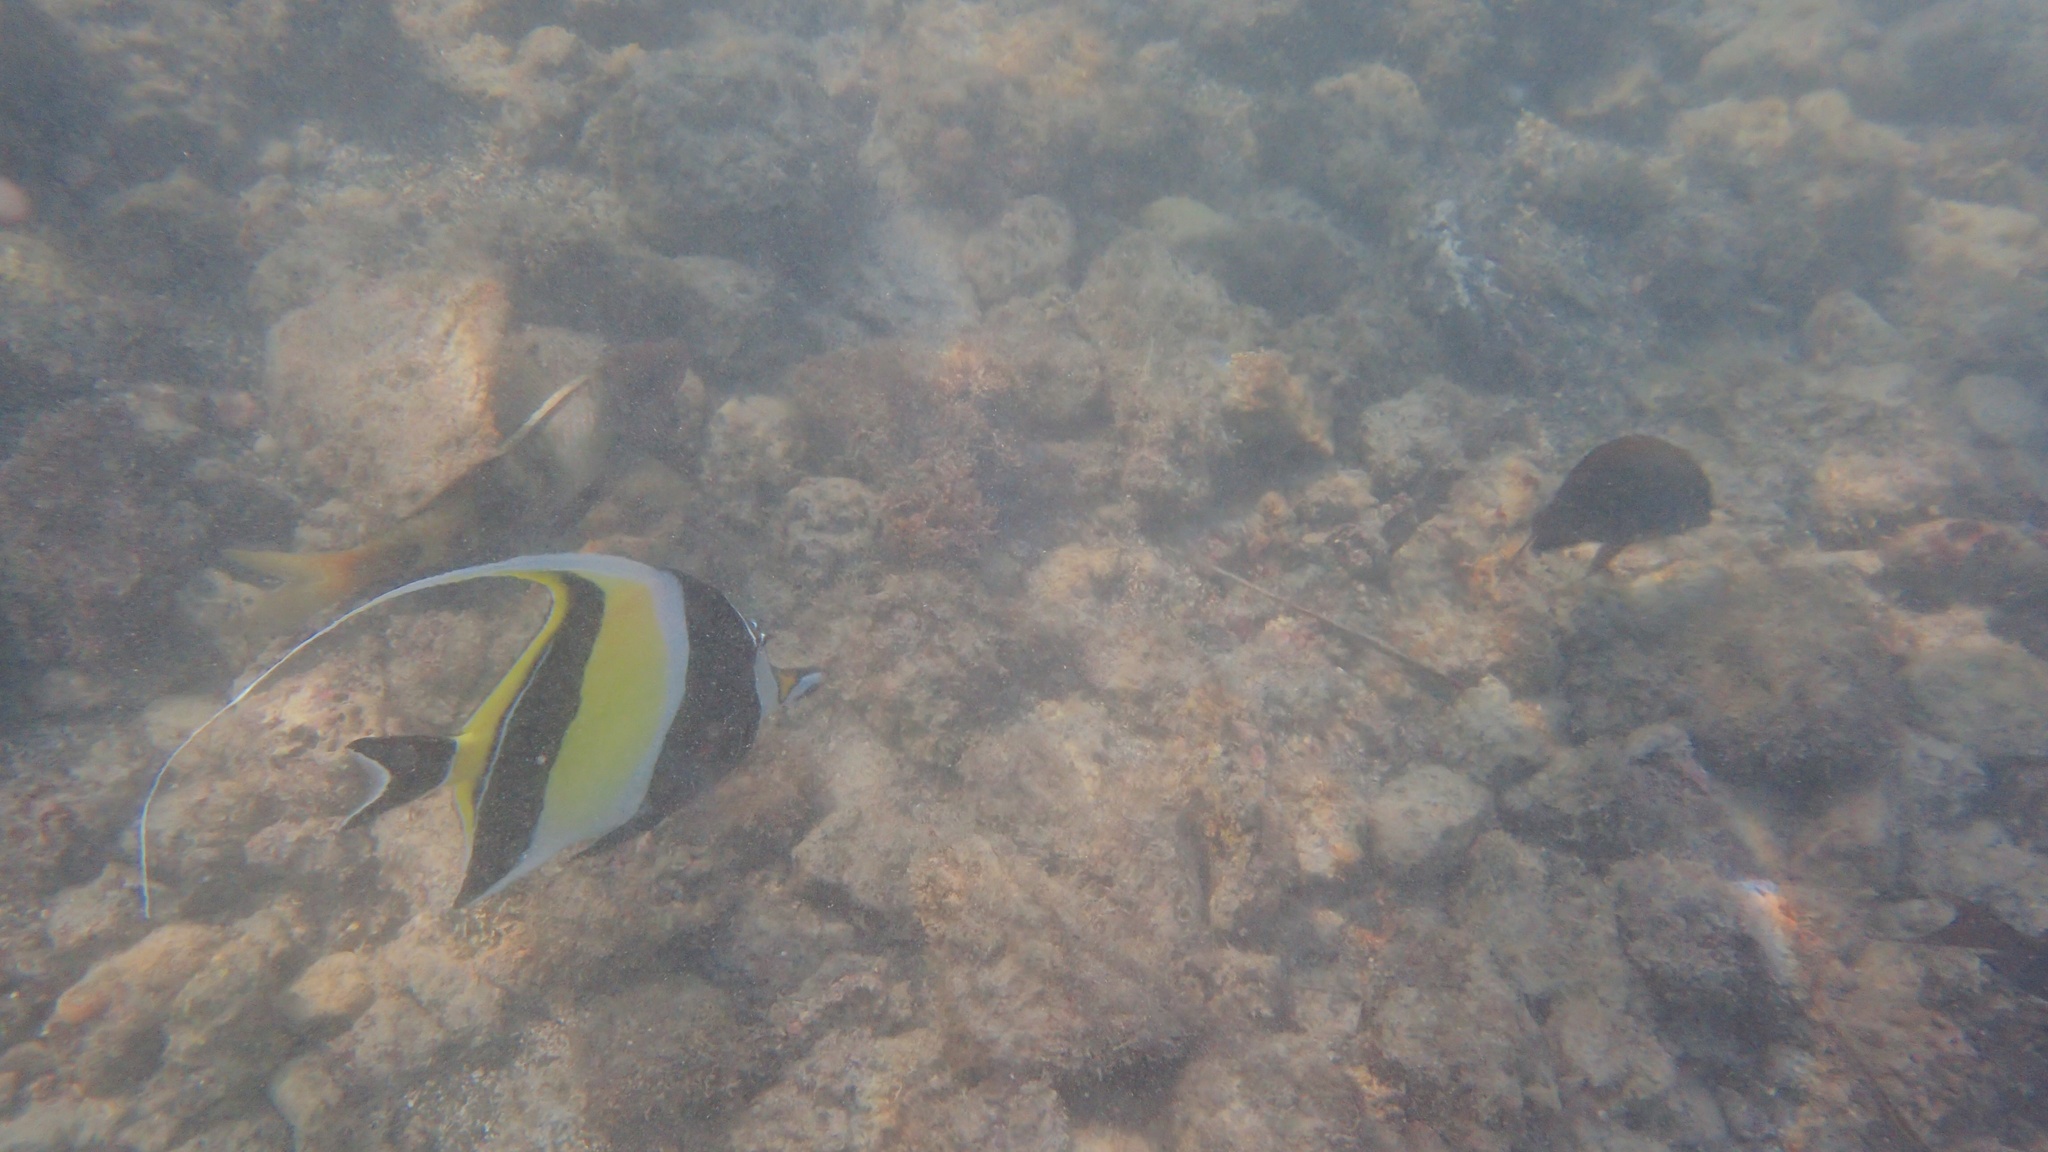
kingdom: Animalia
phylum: Chordata
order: Perciformes
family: Zanclidae
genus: Zanclus
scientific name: Zanclus cornutus
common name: Moorish idol
